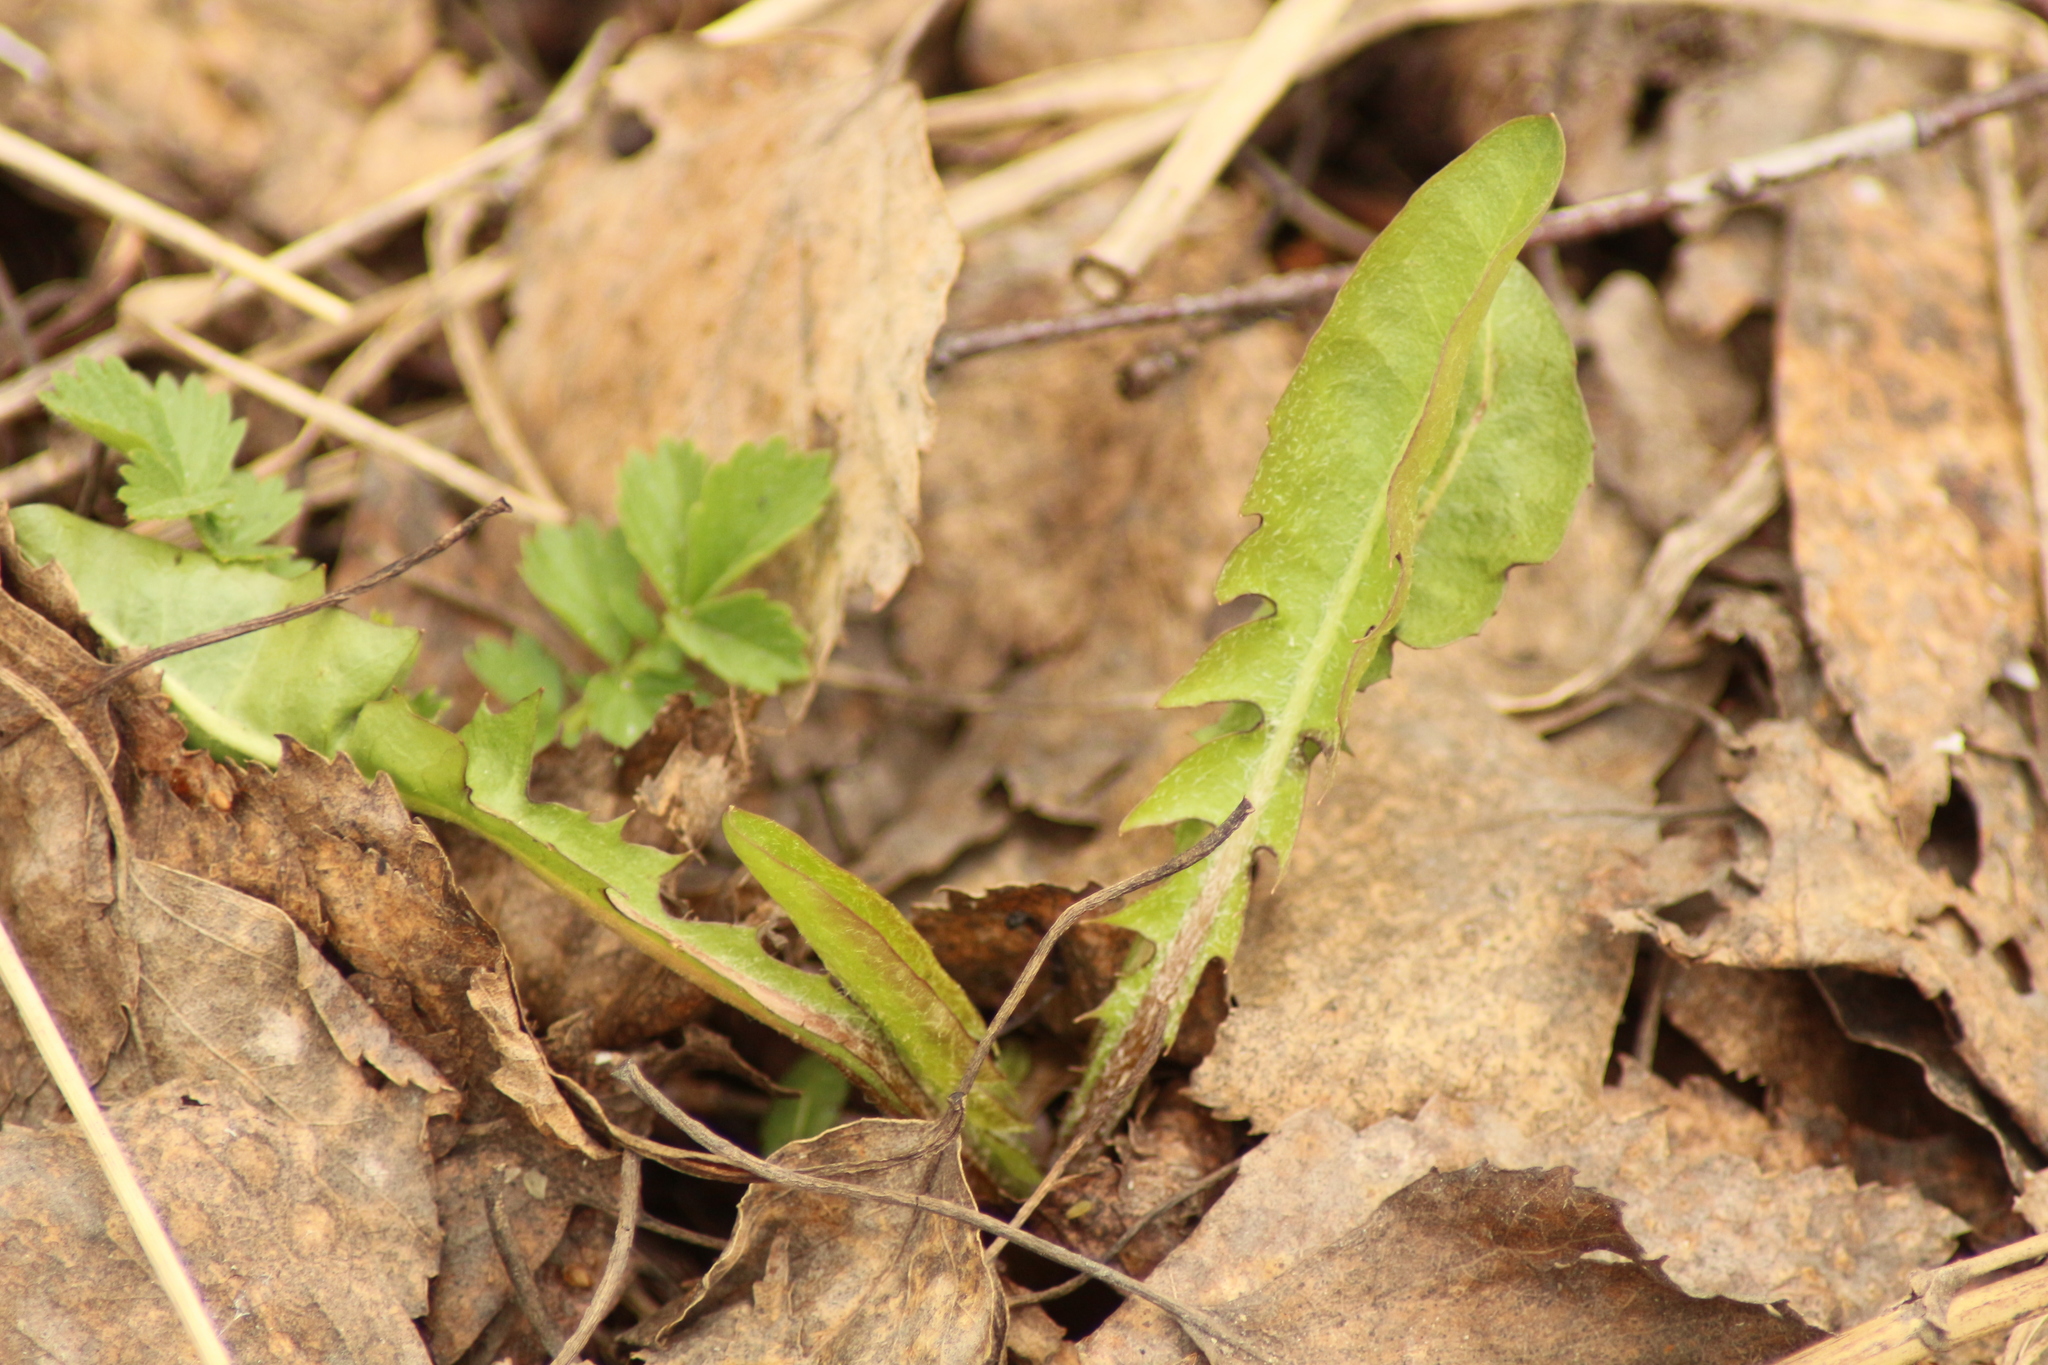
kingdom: Plantae
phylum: Tracheophyta
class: Magnoliopsida
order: Asterales
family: Asteraceae
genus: Taraxacum
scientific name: Taraxacum officinale
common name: Common dandelion
